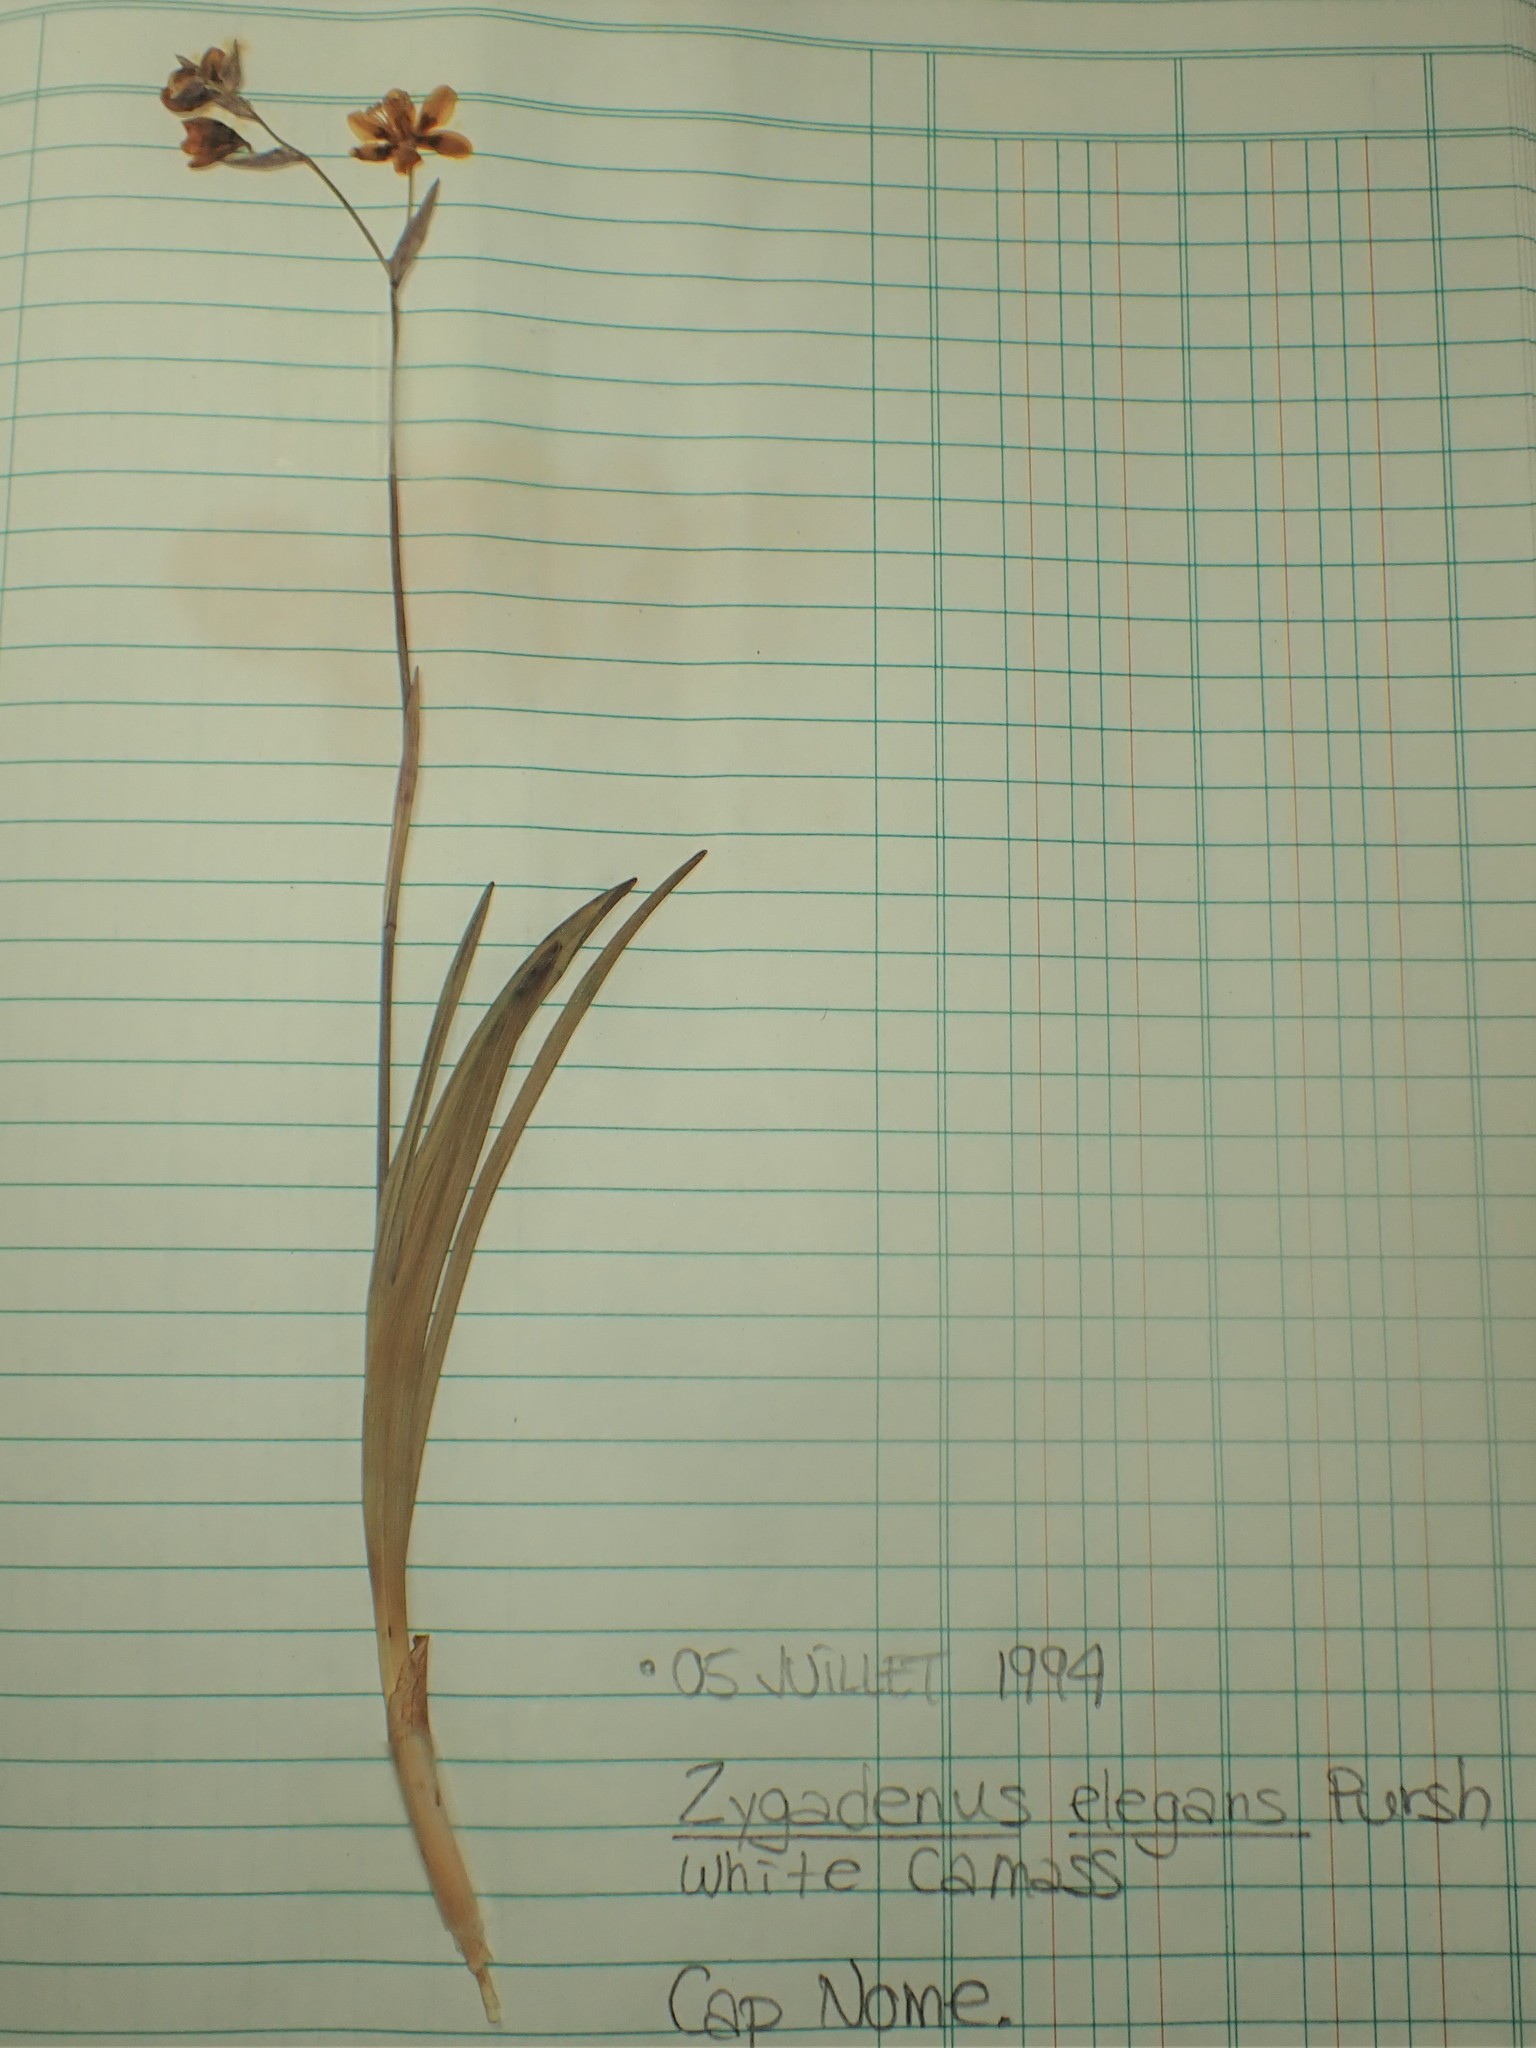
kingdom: Plantae
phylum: Tracheophyta
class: Liliopsida
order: Liliales
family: Melanthiaceae
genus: Anticlea
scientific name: Anticlea elegans
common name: Mountain death camas
